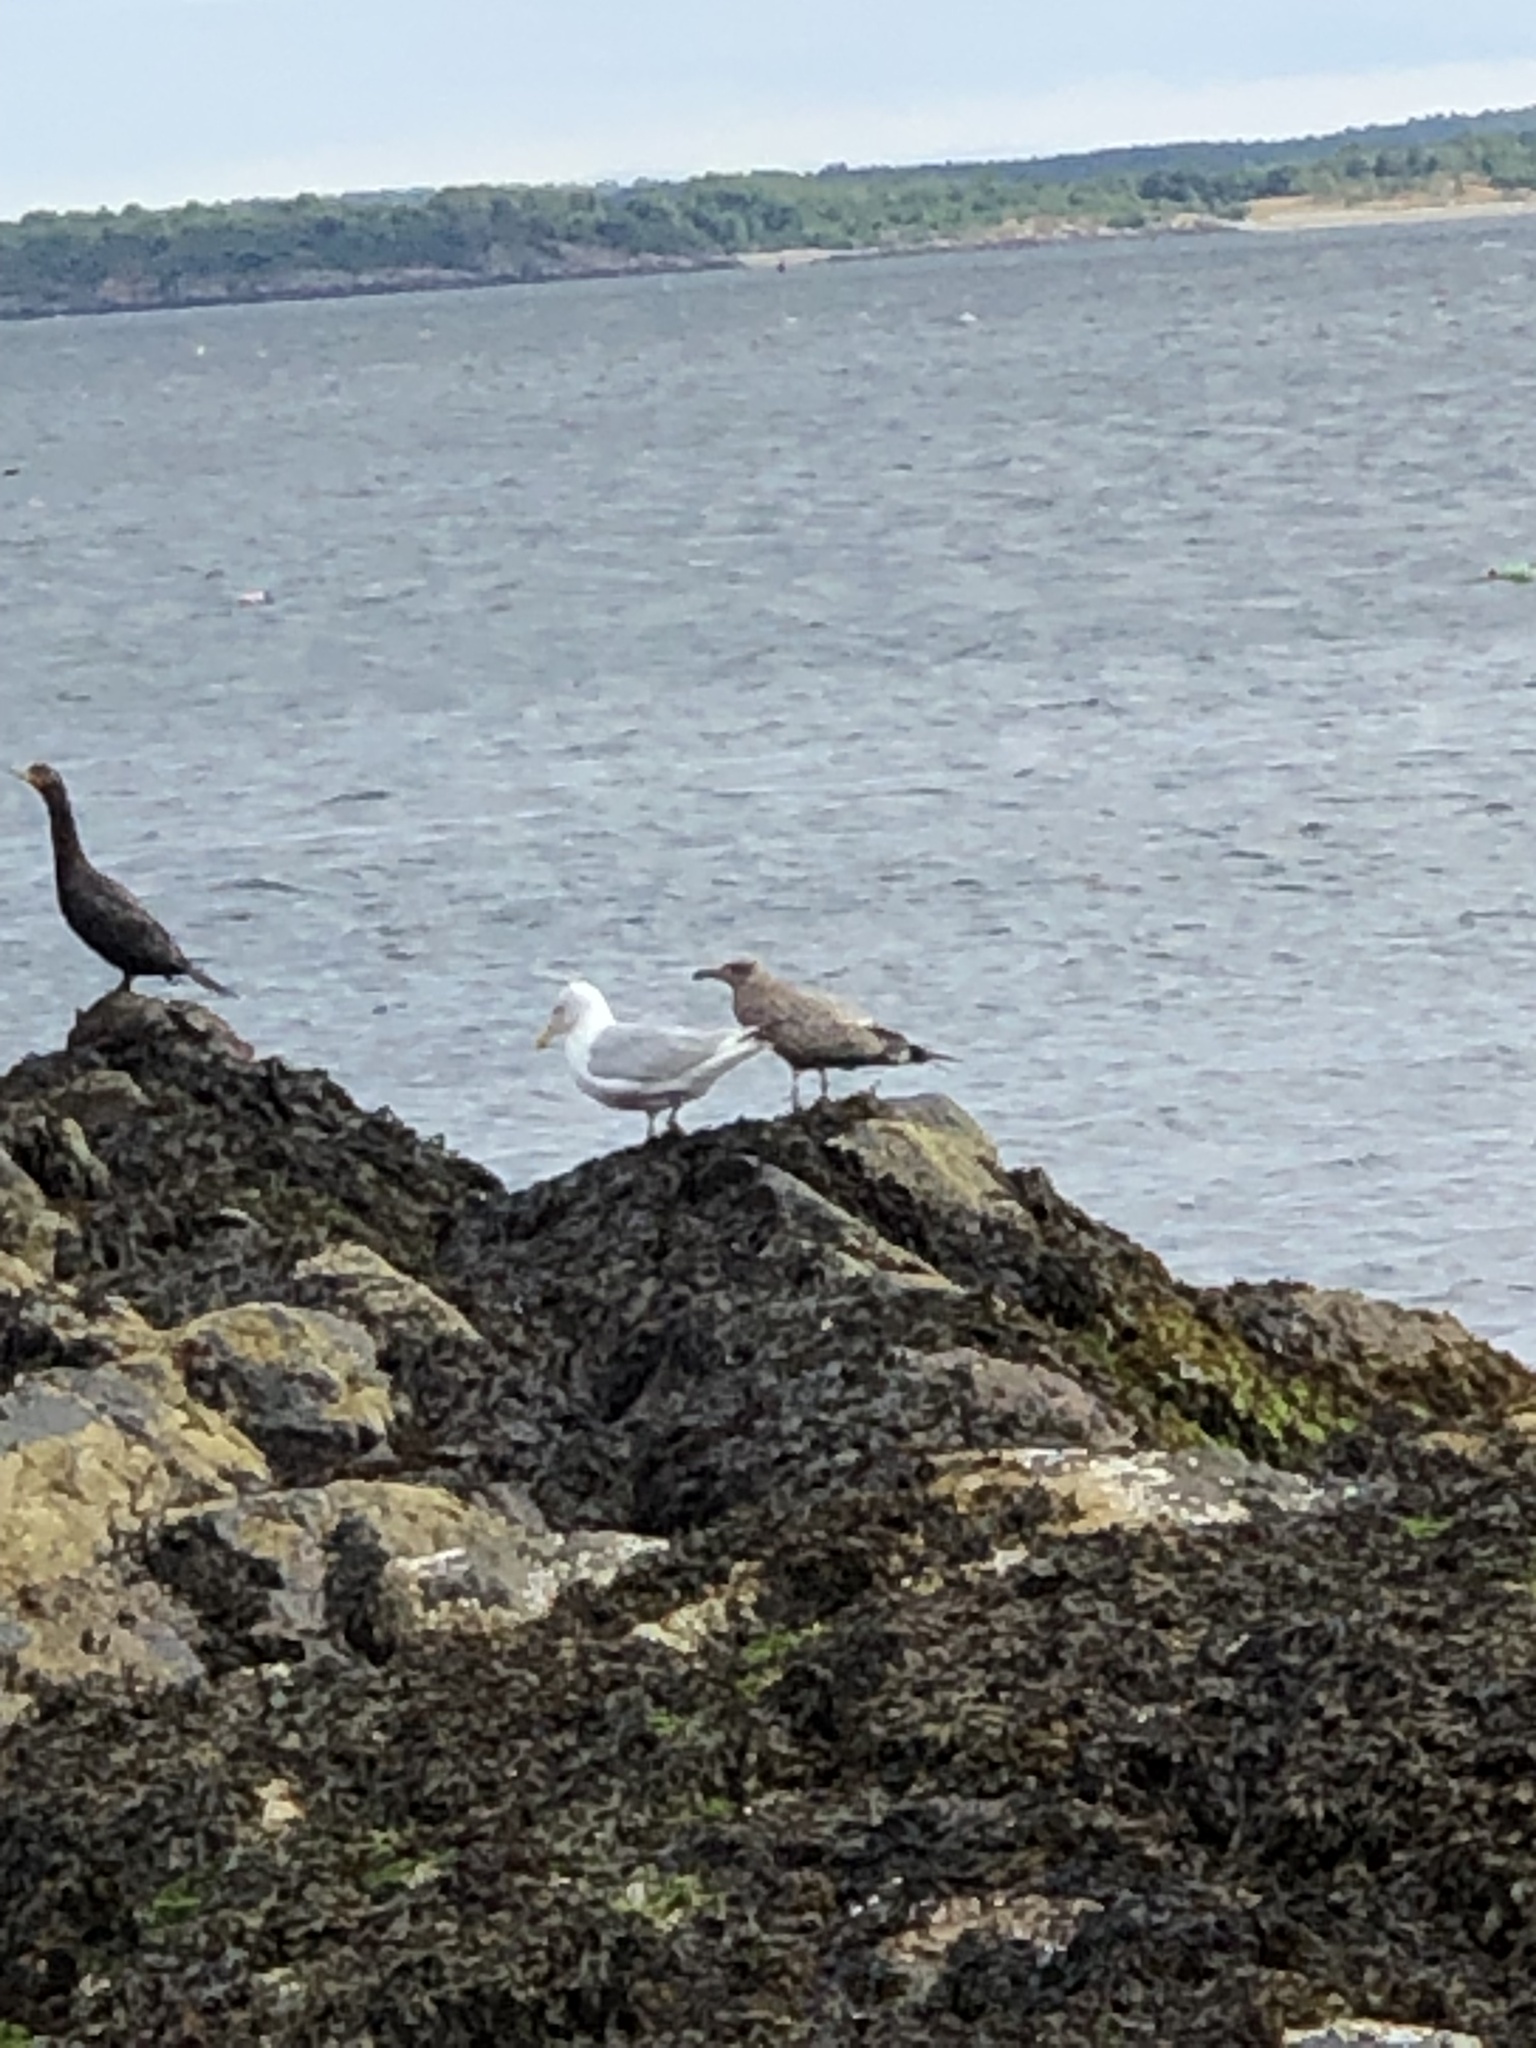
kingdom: Animalia
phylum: Chordata
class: Aves
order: Charadriiformes
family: Laridae
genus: Larus
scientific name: Larus argentatus
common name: Herring gull
